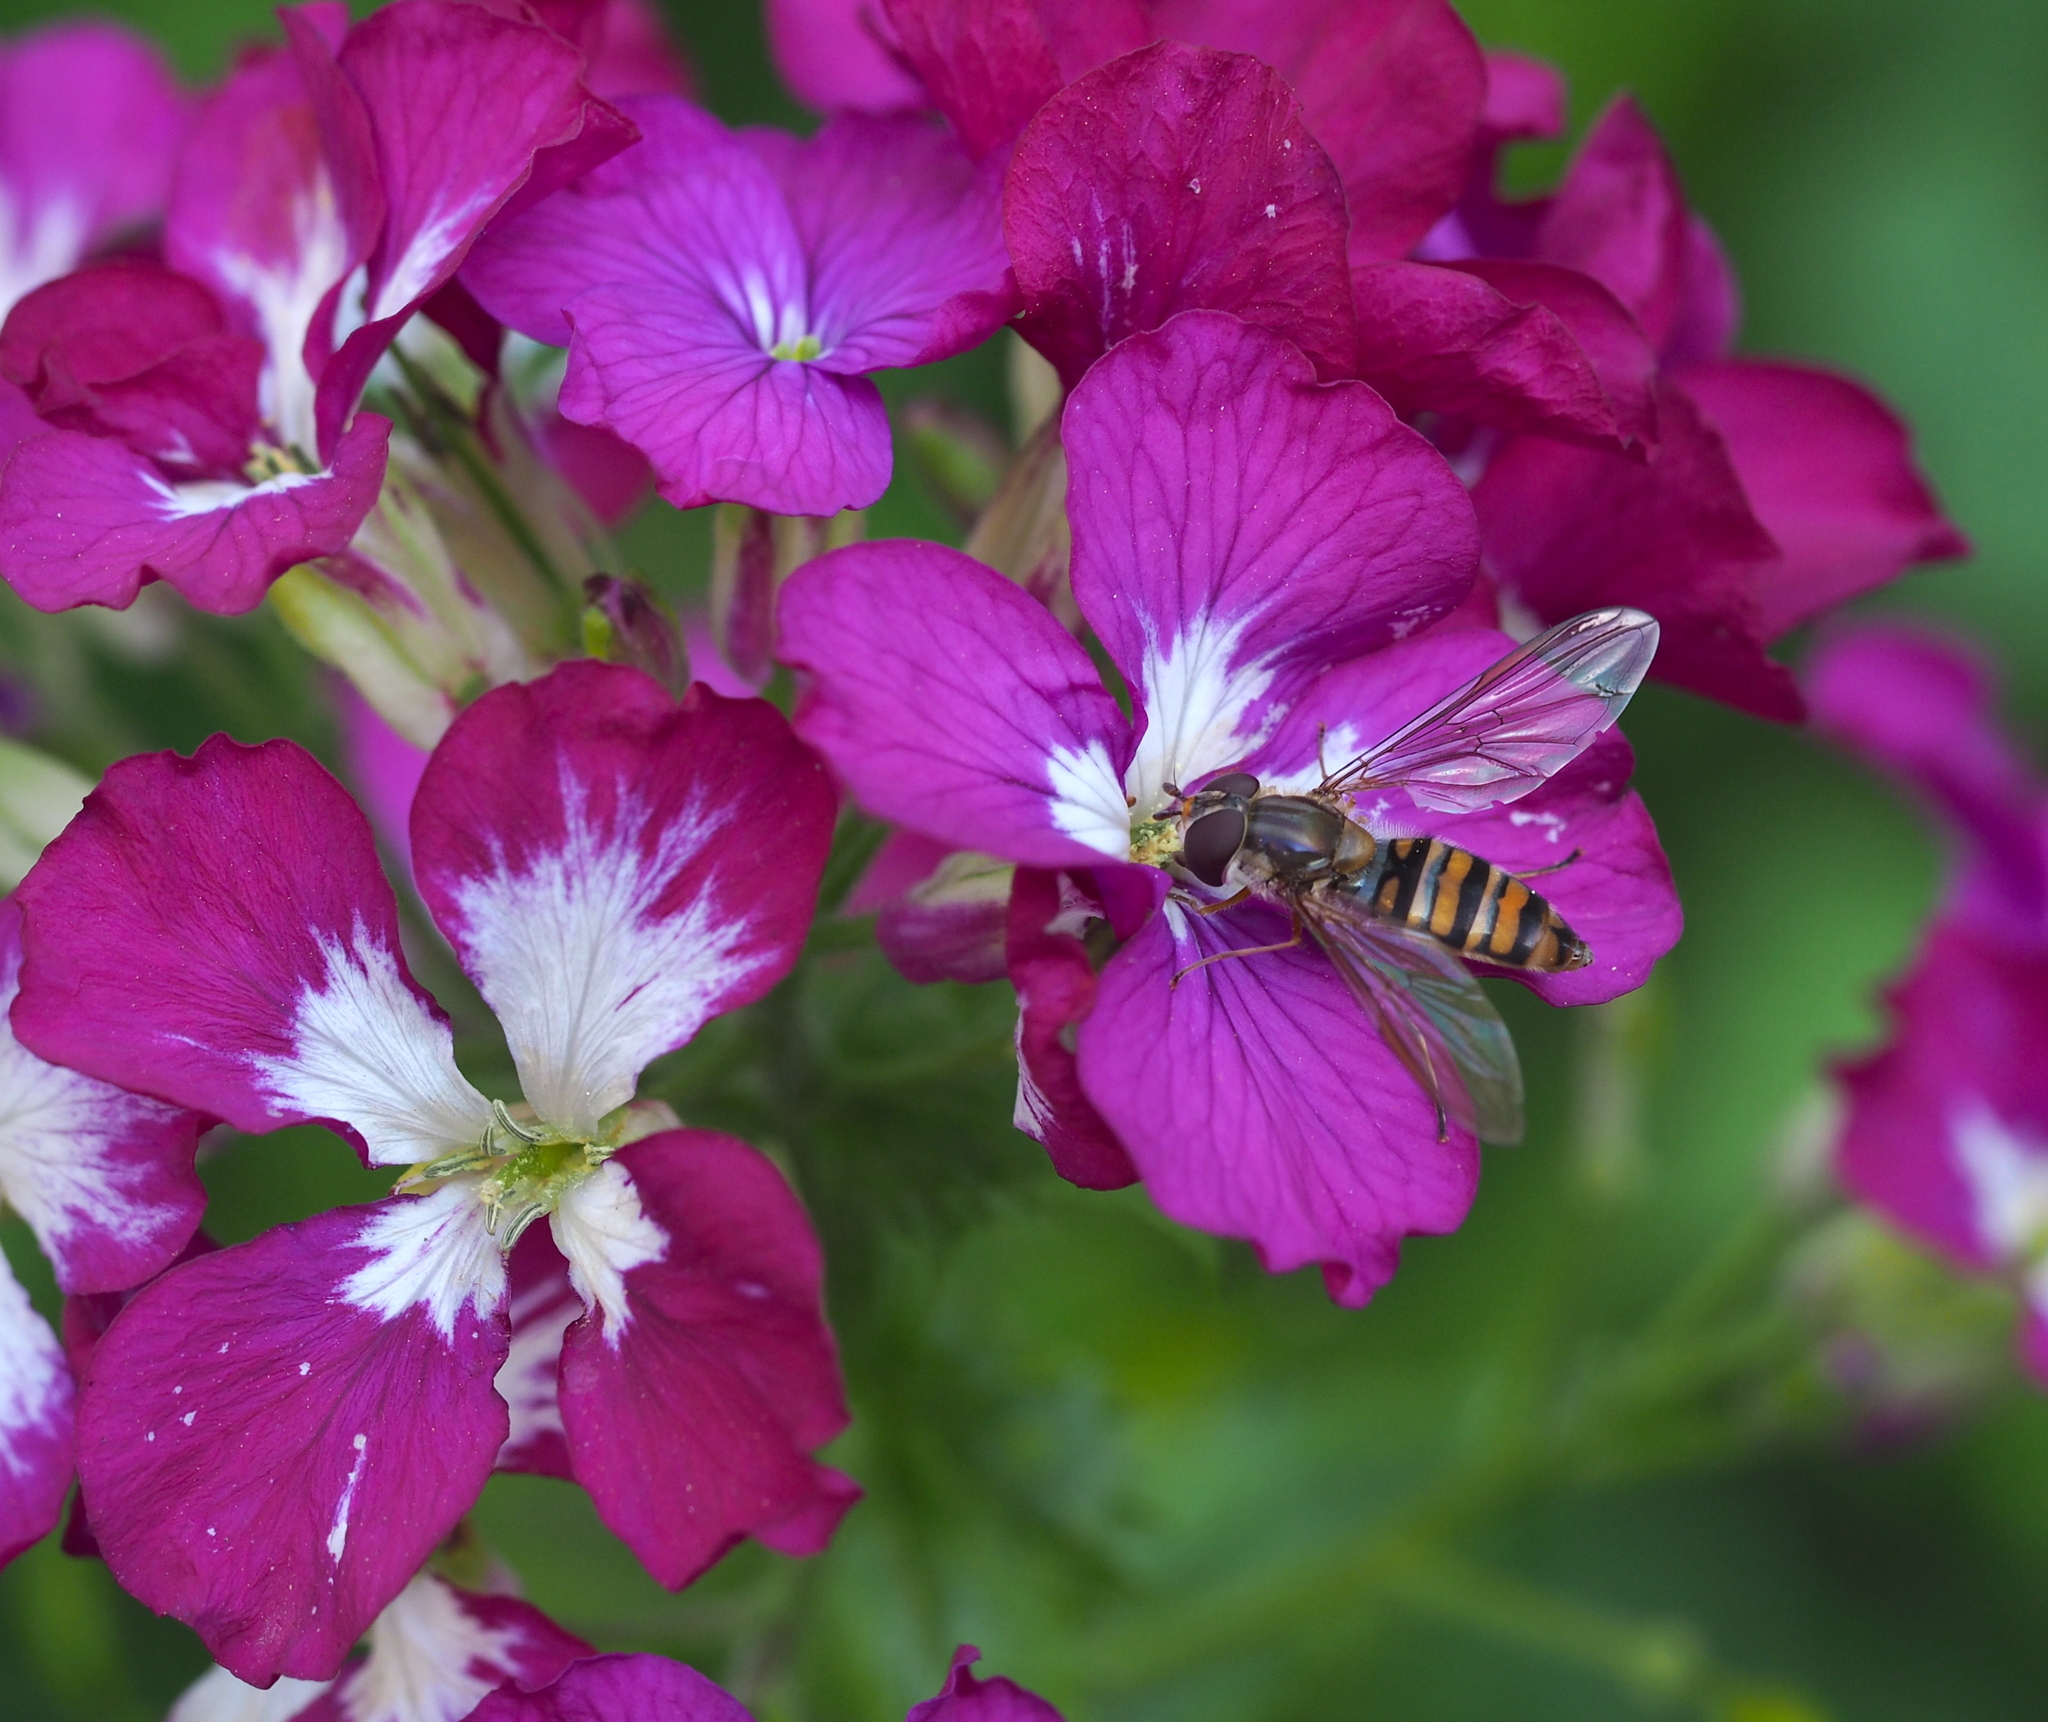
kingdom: Animalia
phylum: Arthropoda
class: Insecta
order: Diptera
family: Syrphidae
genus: Episyrphus
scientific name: Episyrphus balteatus
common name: Marmalade hoverfly
